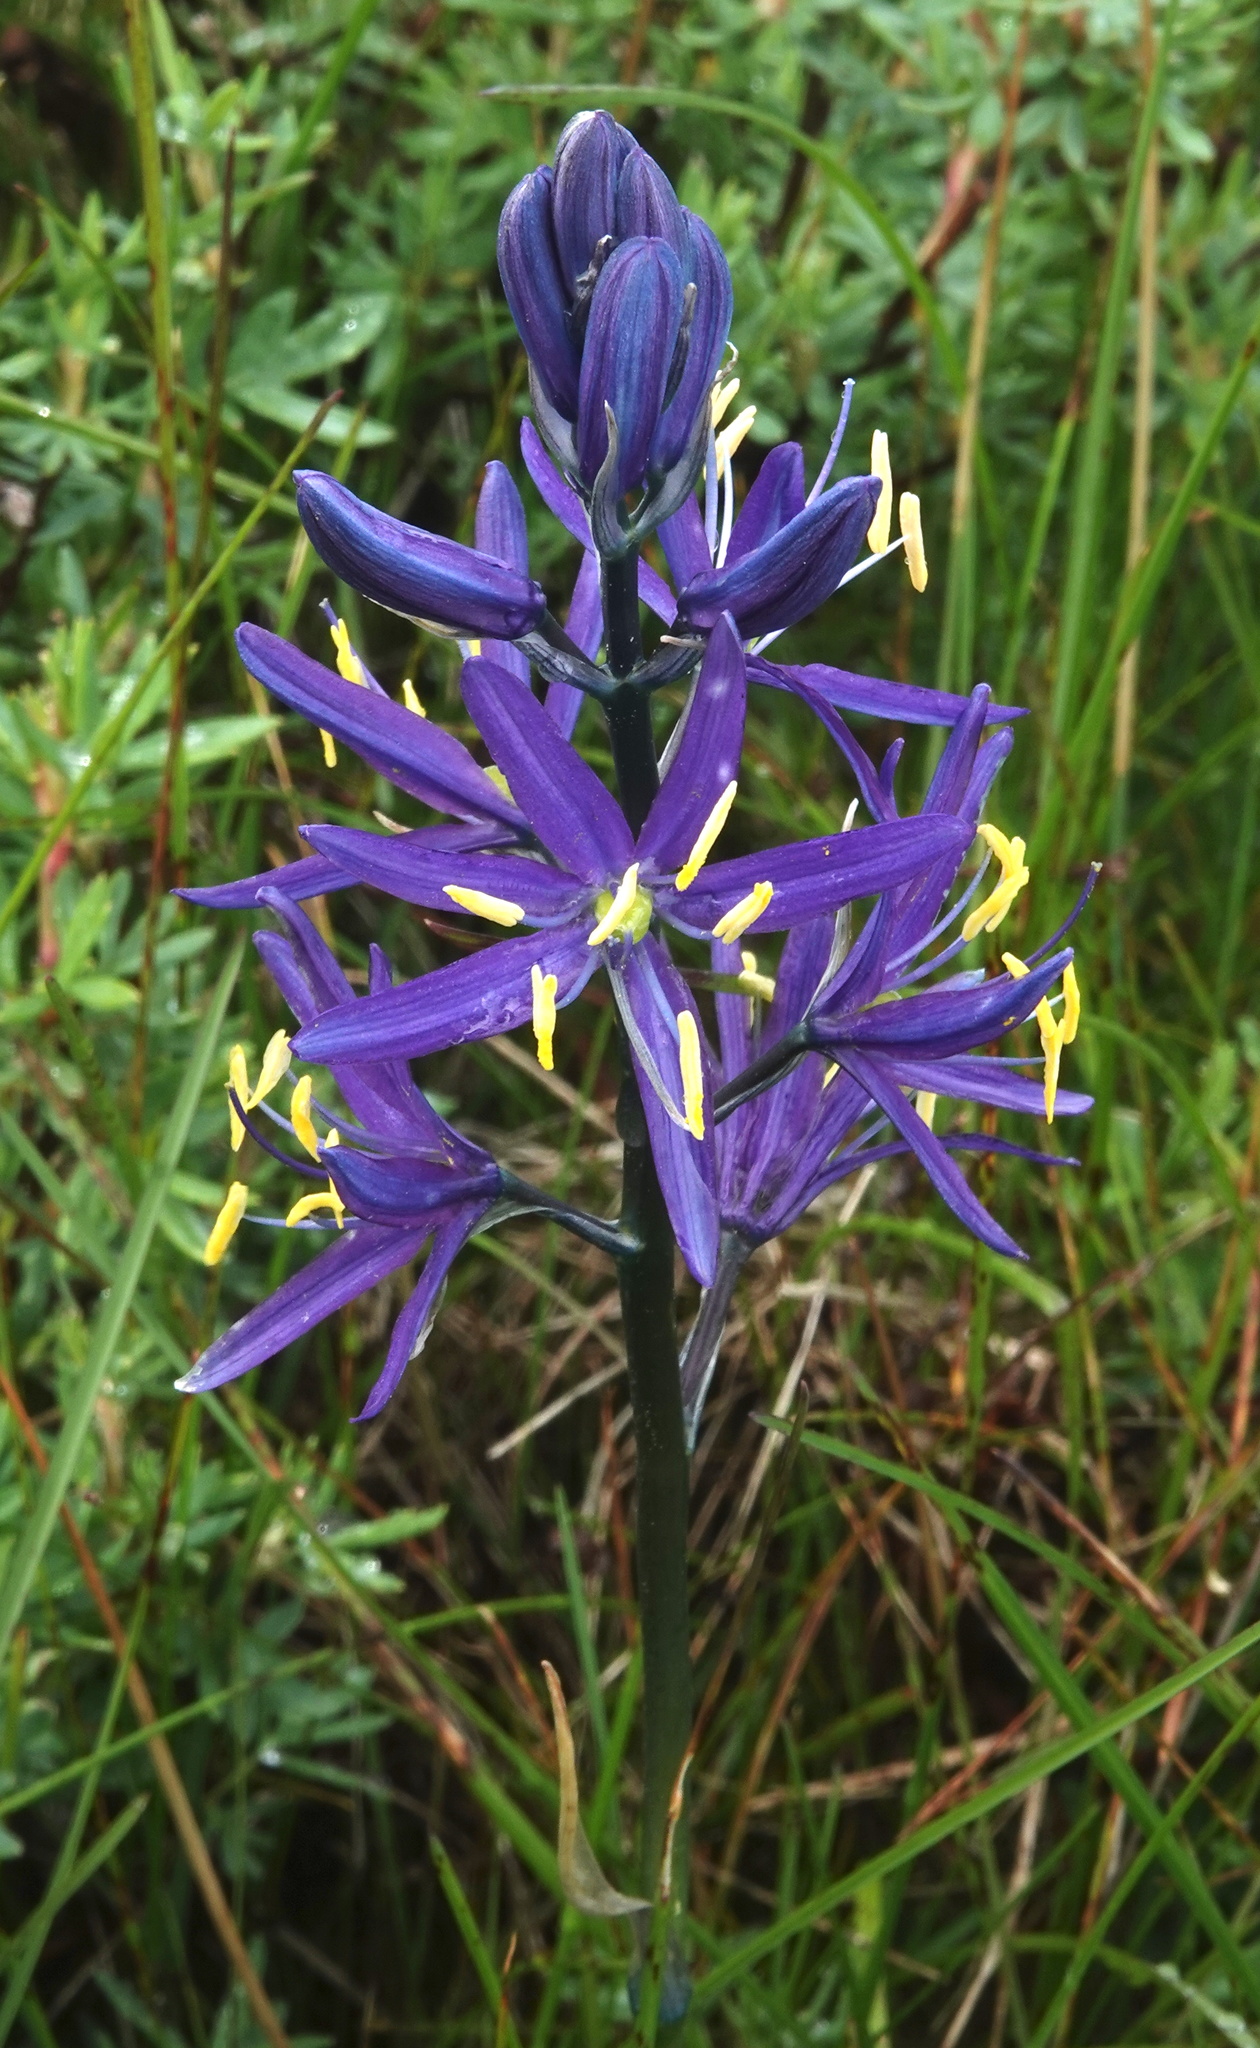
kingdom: Plantae
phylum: Tracheophyta
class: Liliopsida
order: Asparagales
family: Asparagaceae
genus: Camassia
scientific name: Camassia quamash
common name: Common camas
